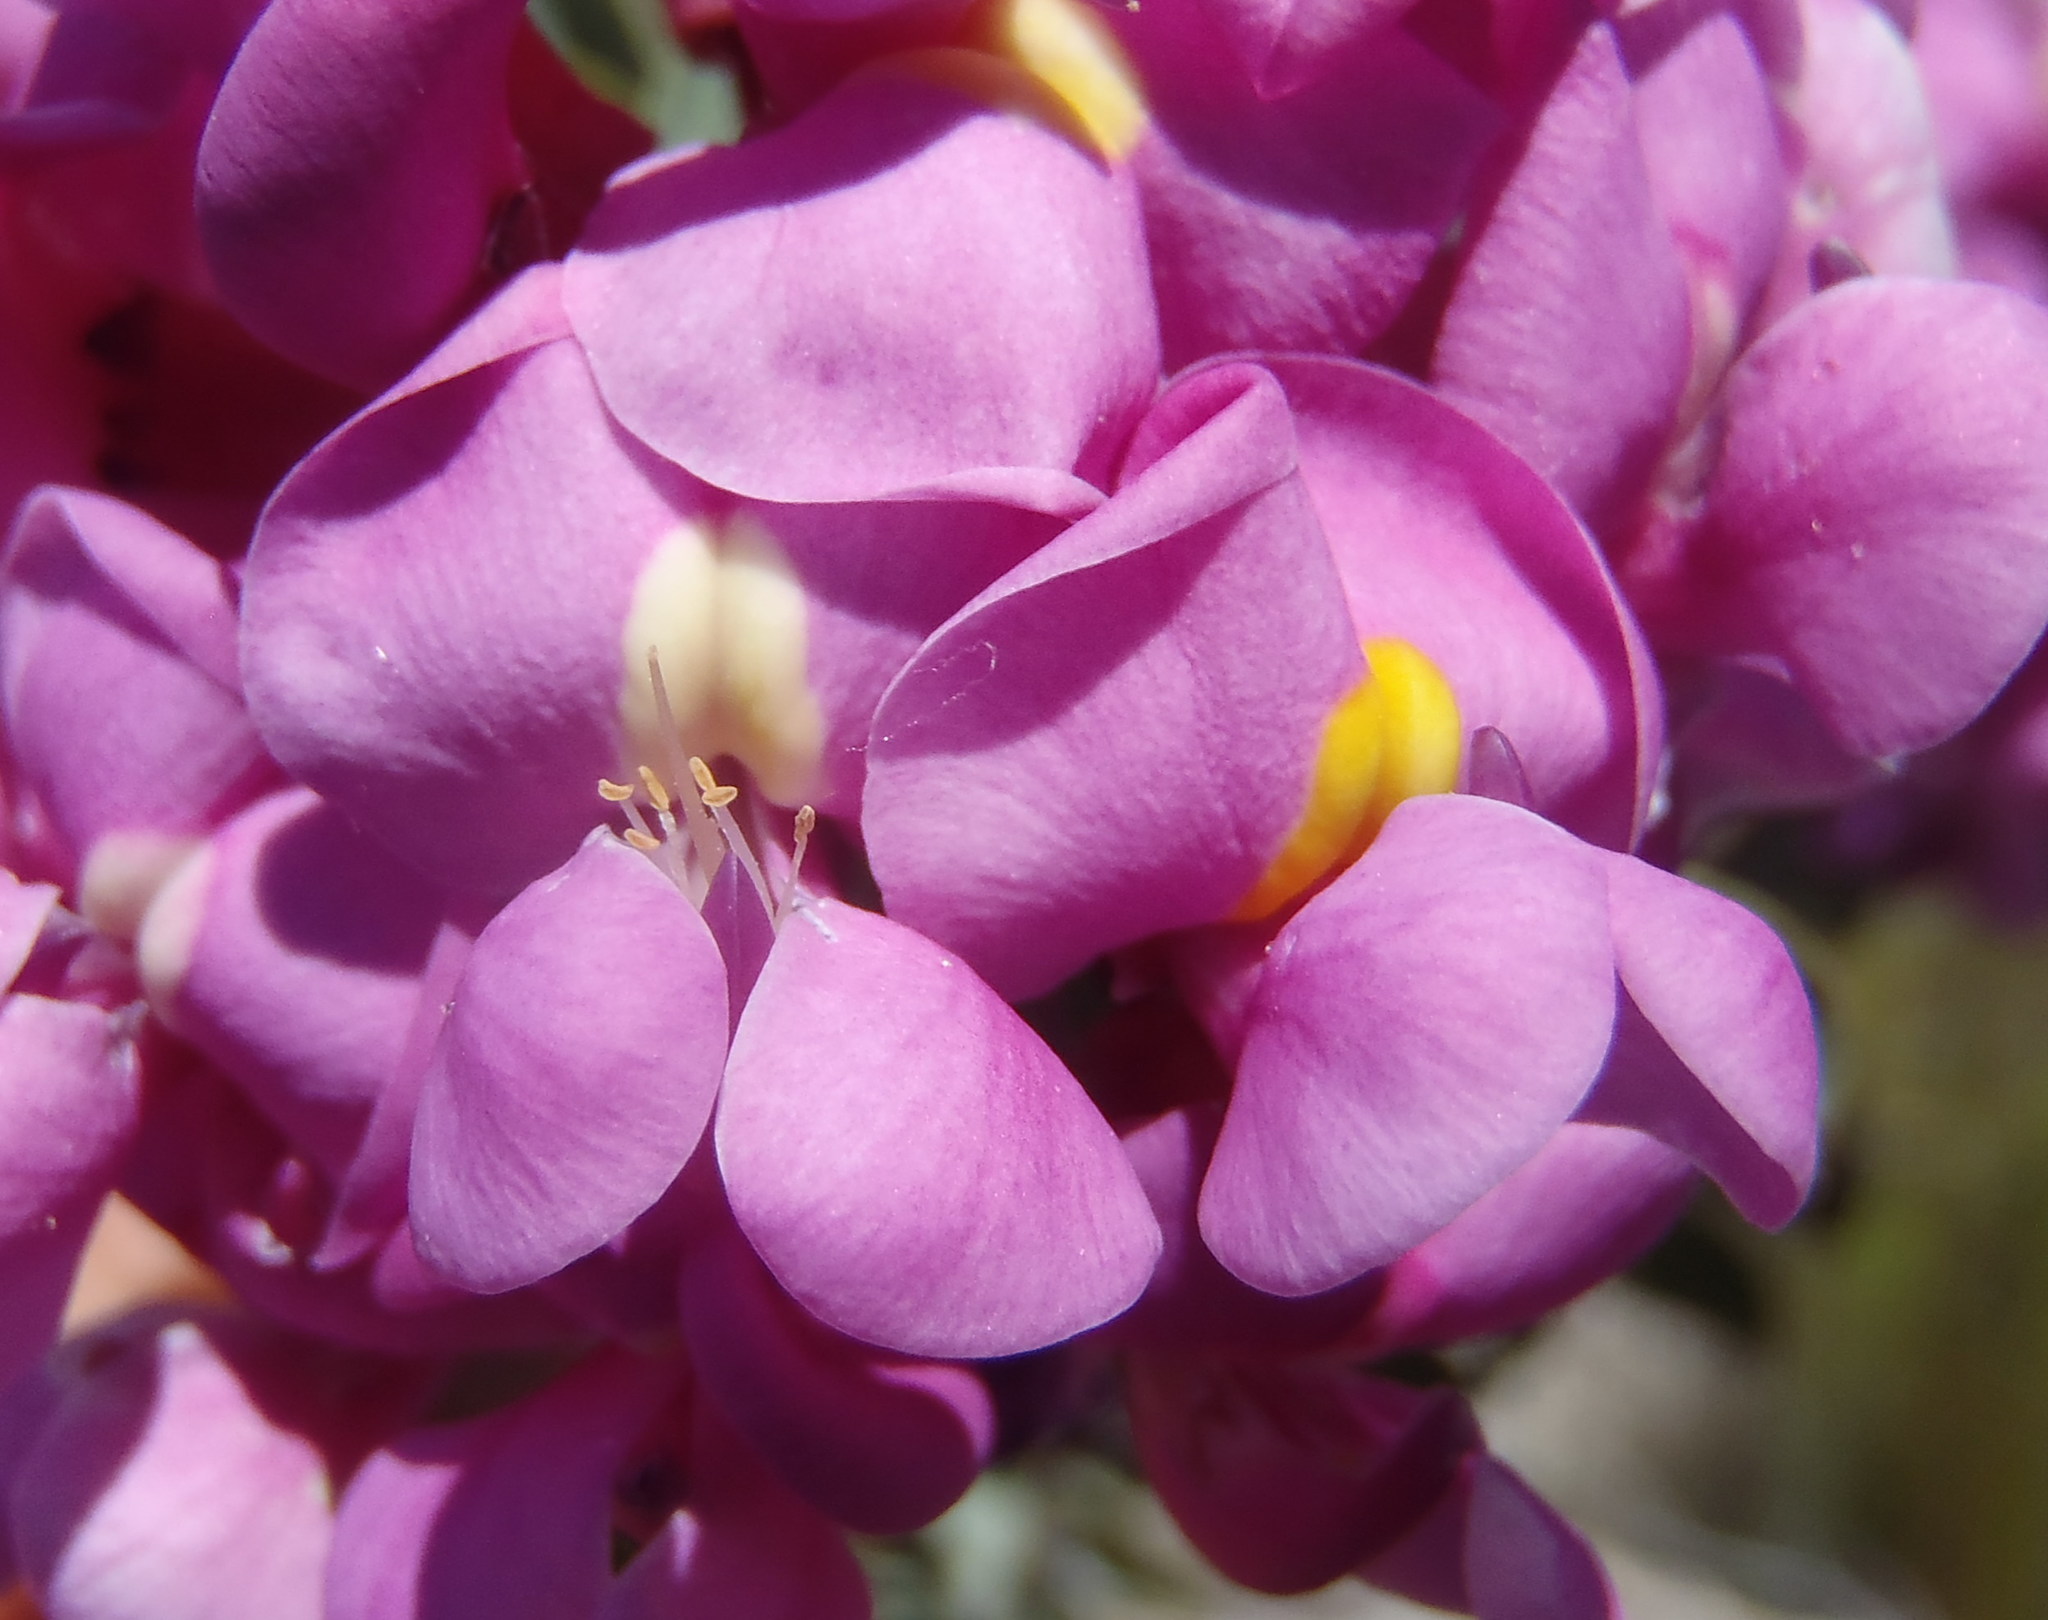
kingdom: Plantae
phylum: Tracheophyta
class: Magnoliopsida
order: Fabales
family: Fabaceae
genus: Hypocalyptus
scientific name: Hypocalyptus sophoroides
